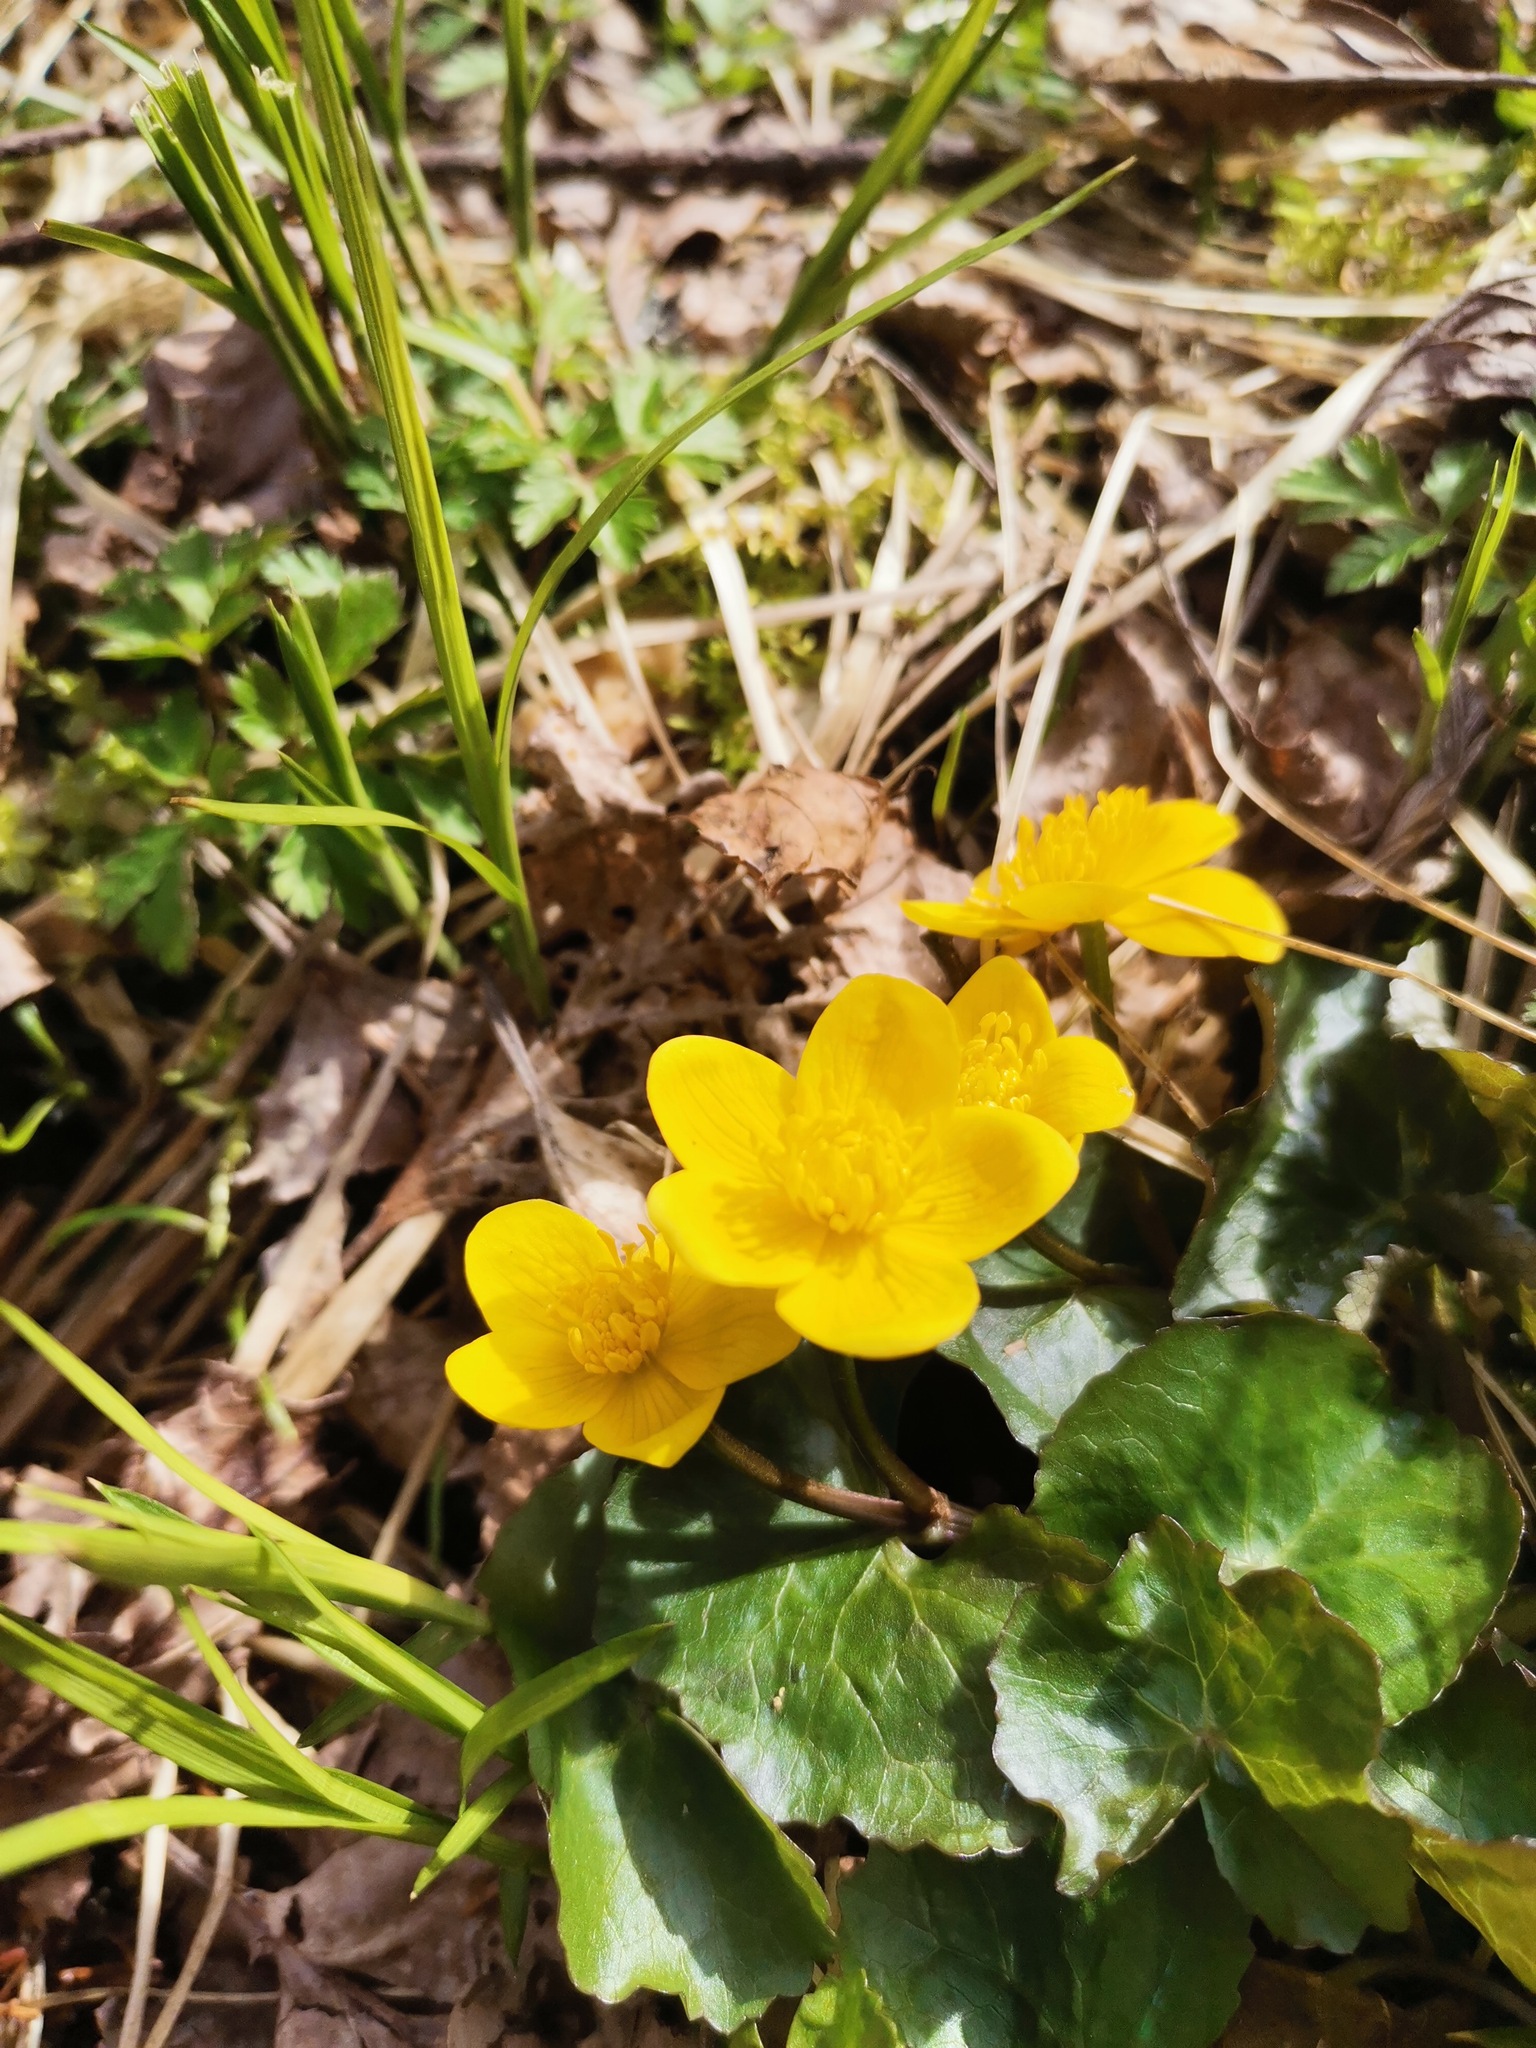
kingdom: Plantae
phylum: Tracheophyta
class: Magnoliopsida
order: Ranunculales
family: Ranunculaceae
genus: Caltha
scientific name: Caltha palustris
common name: Marsh marigold
